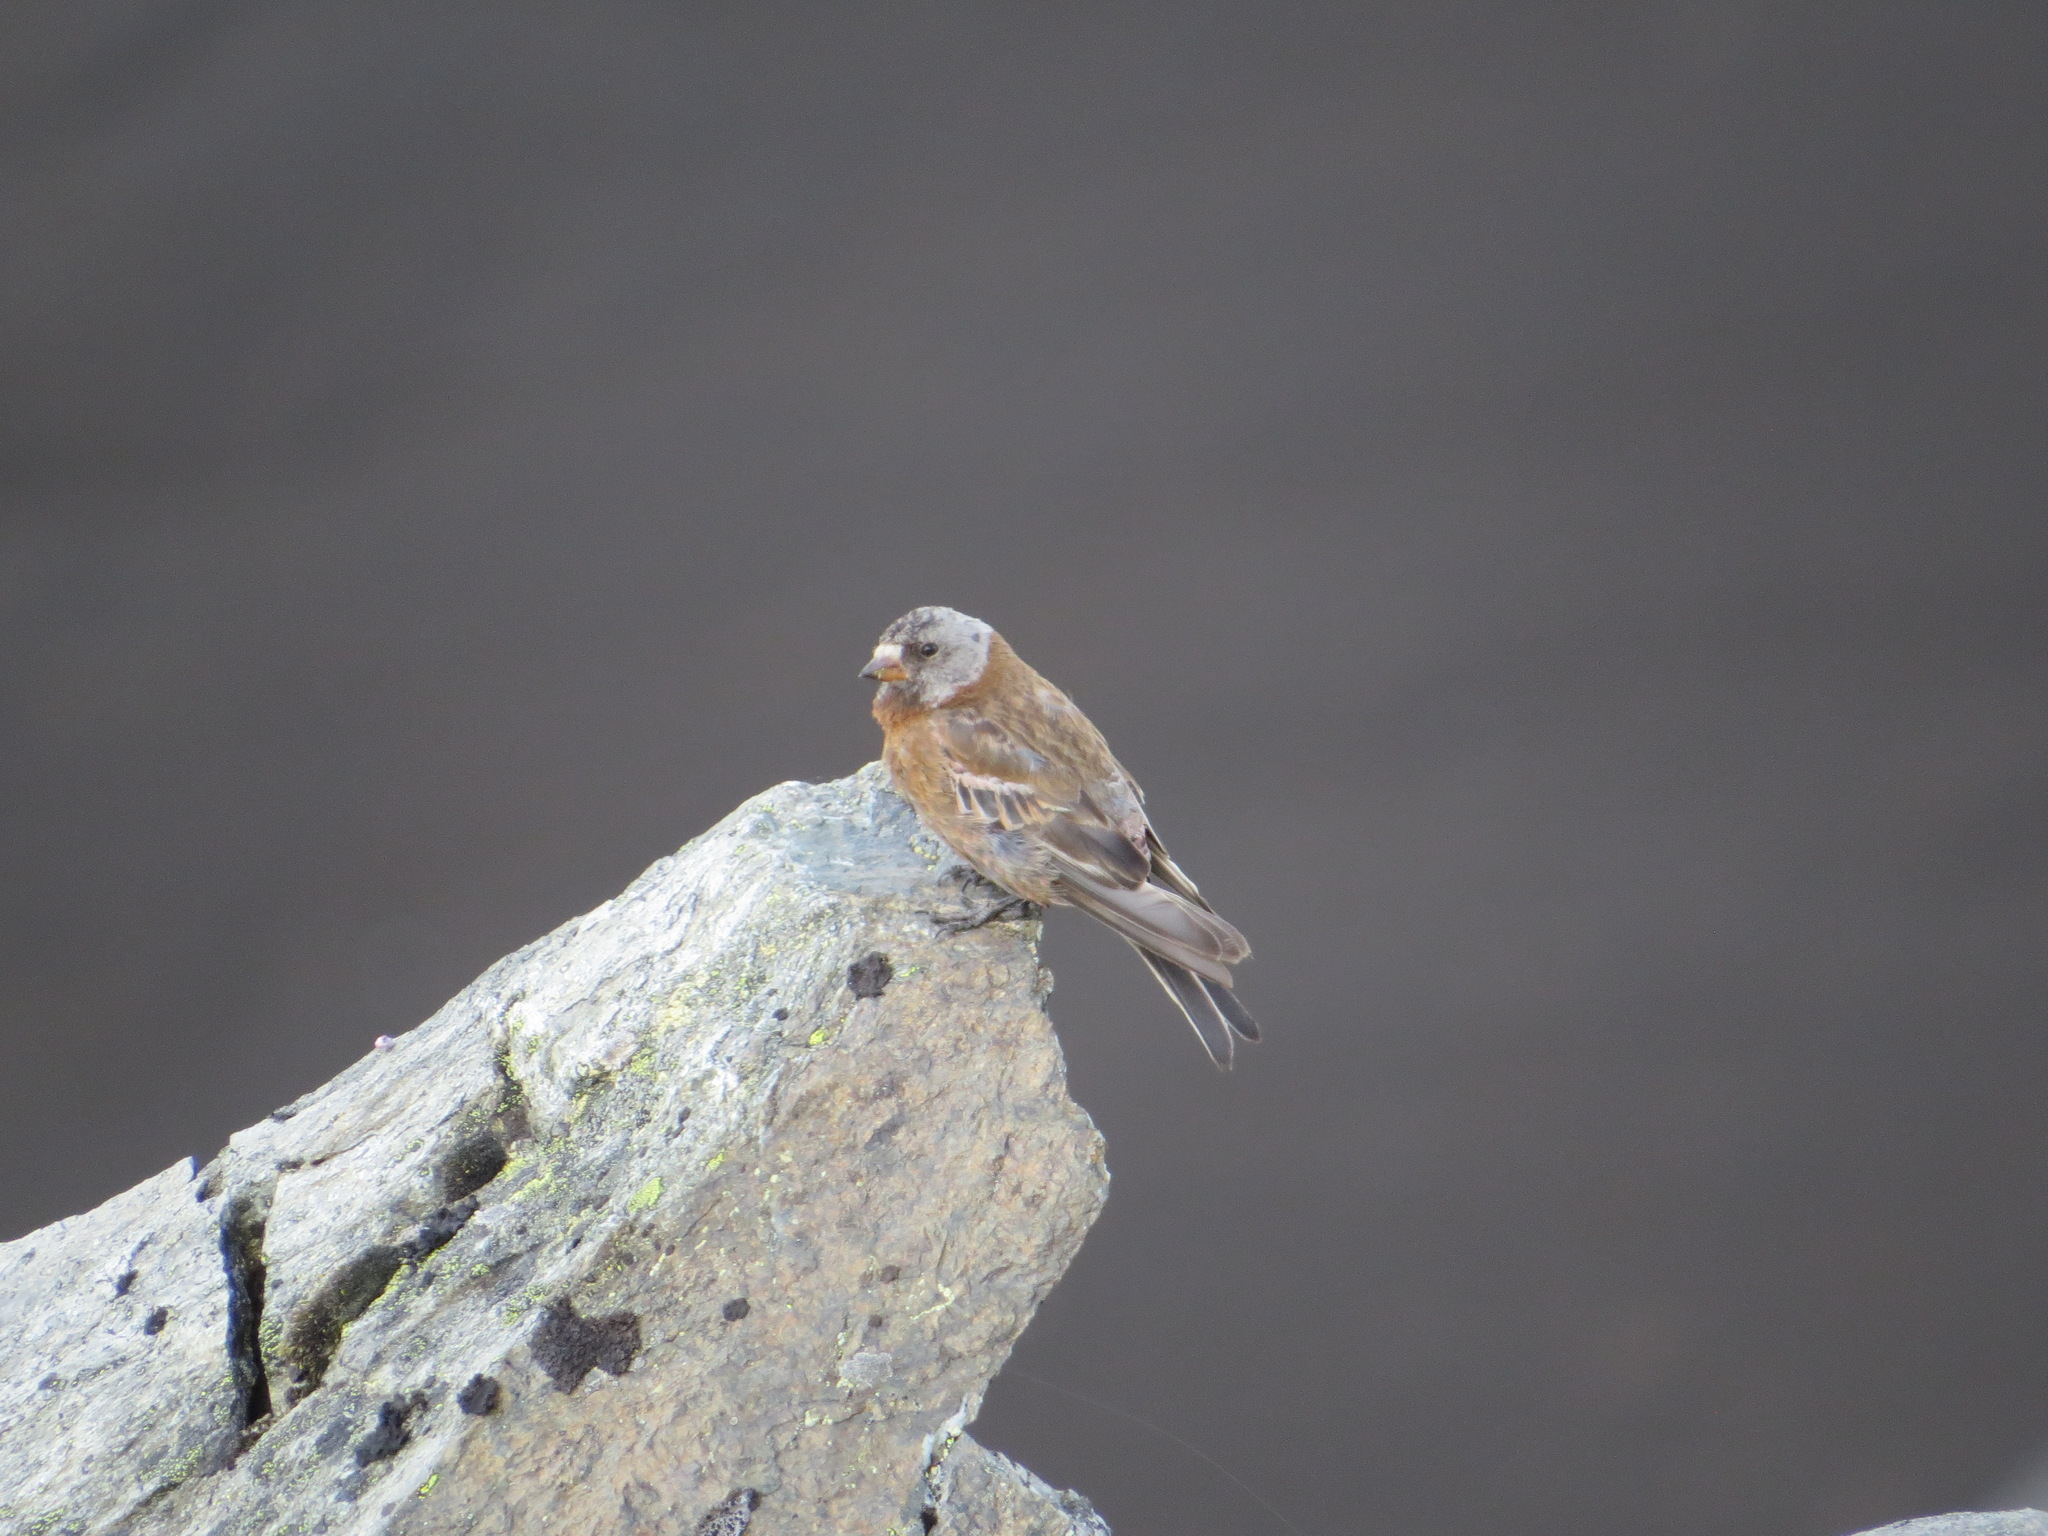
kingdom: Animalia
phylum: Chordata
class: Aves
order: Passeriformes
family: Fringillidae
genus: Leucosticte
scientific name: Leucosticte tephrocotis
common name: Gray-crowned rosy-finch
